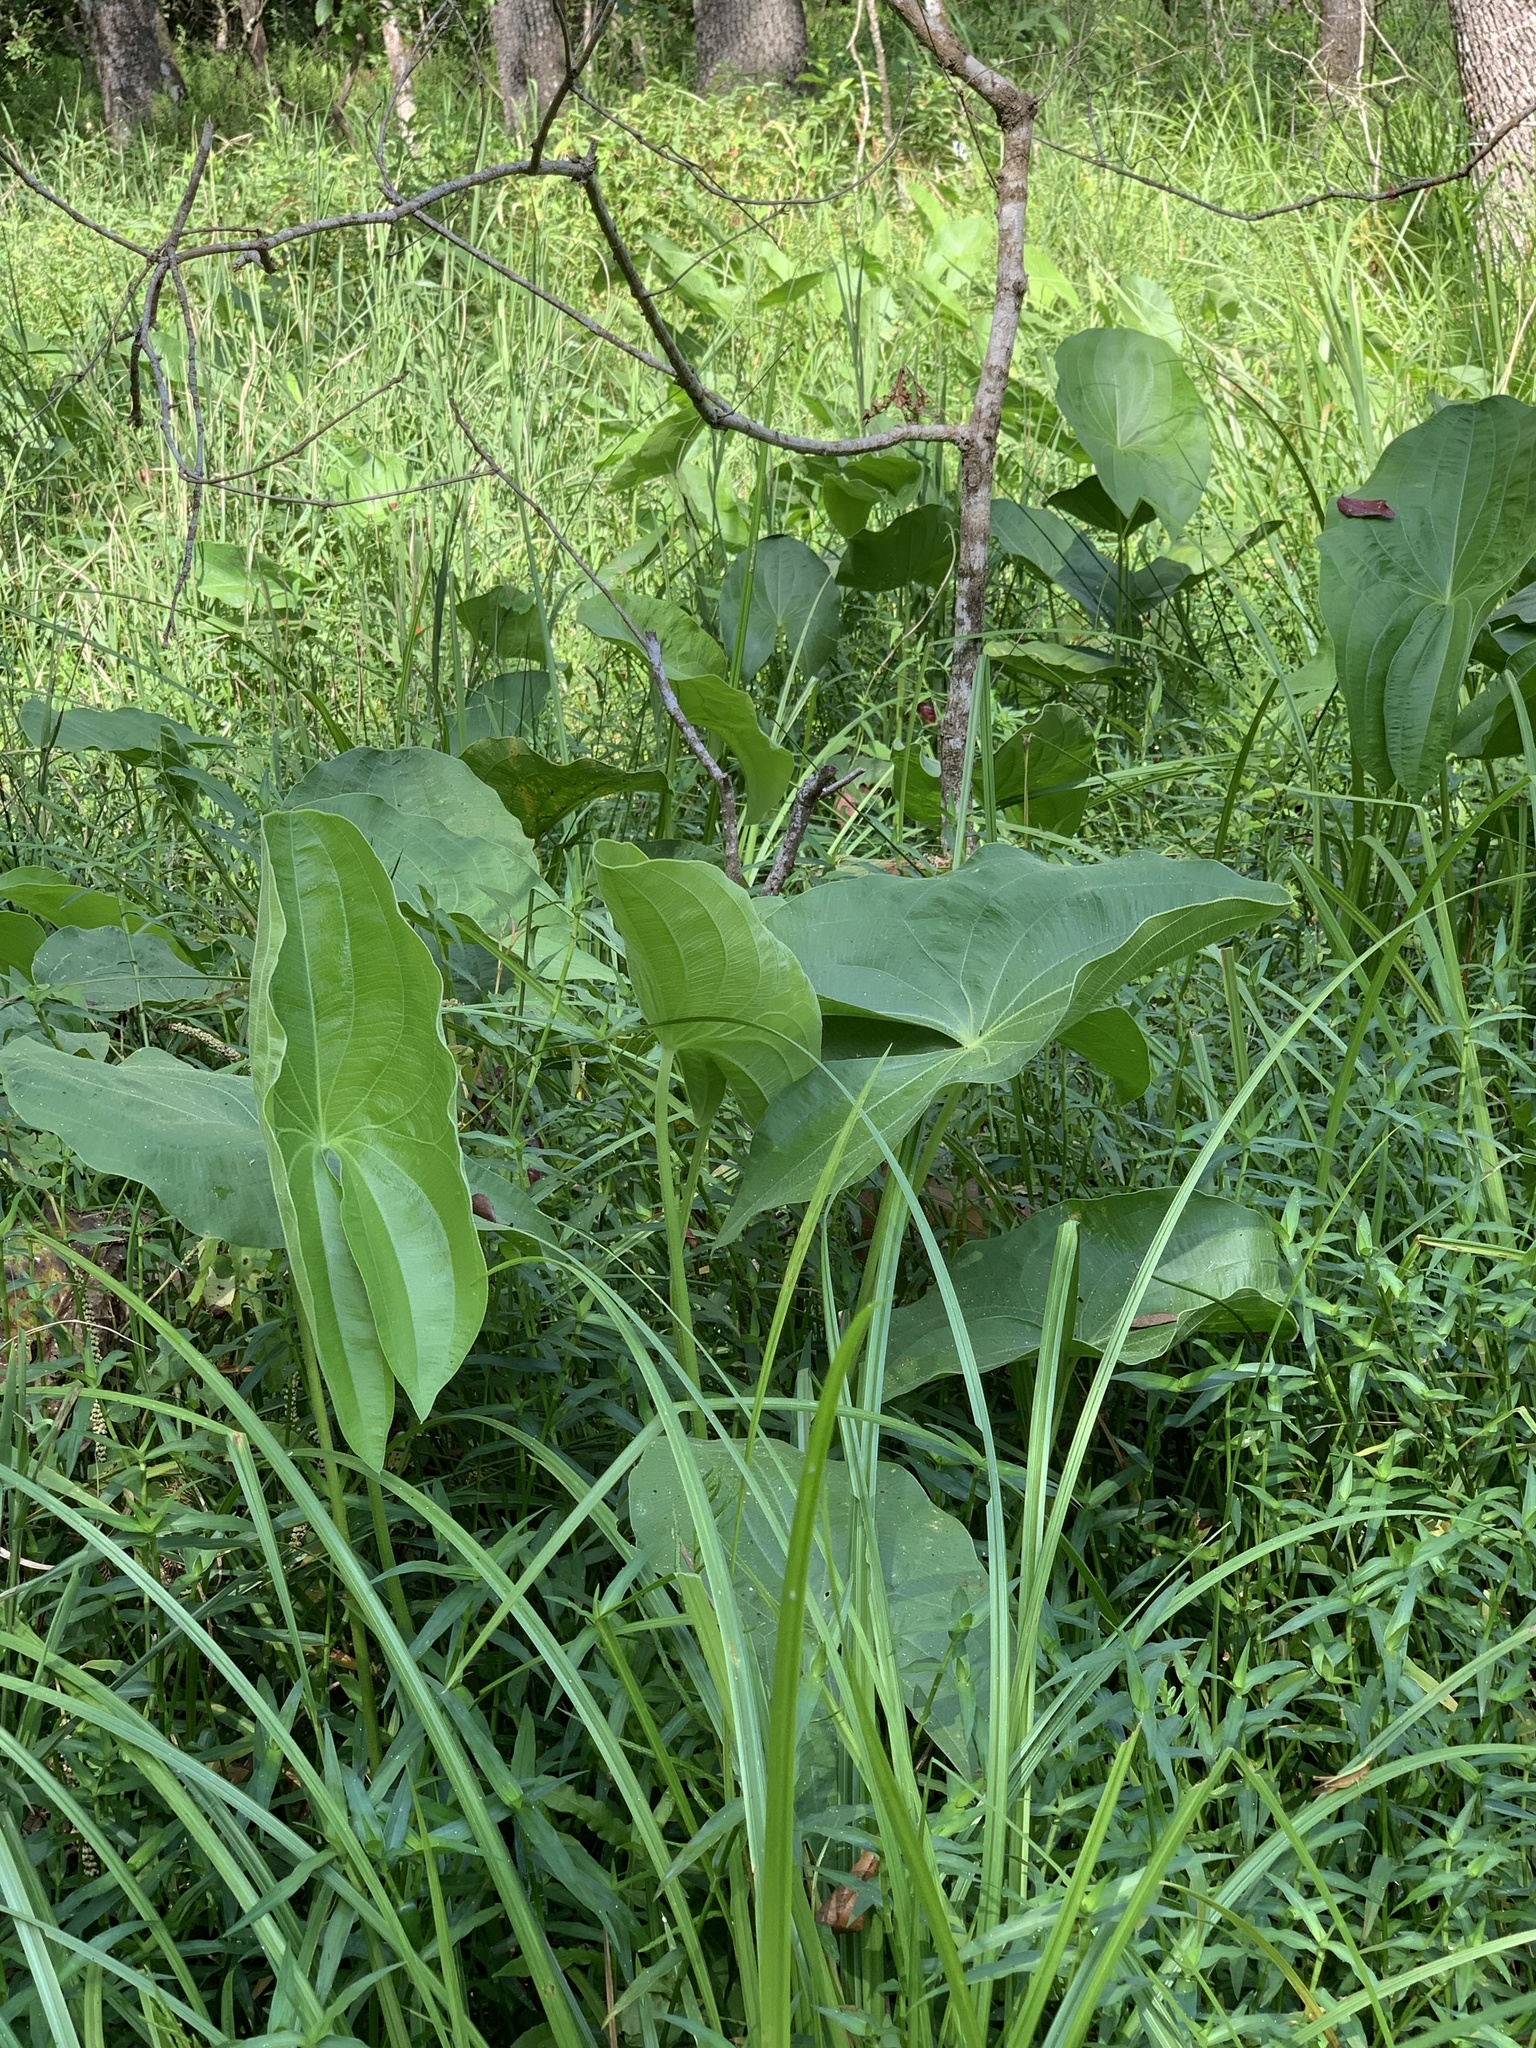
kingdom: Plantae
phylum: Tracheophyta
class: Liliopsida
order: Alismatales
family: Alismataceae
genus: Sagittaria
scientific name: Sagittaria latifolia
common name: Duck-potato
